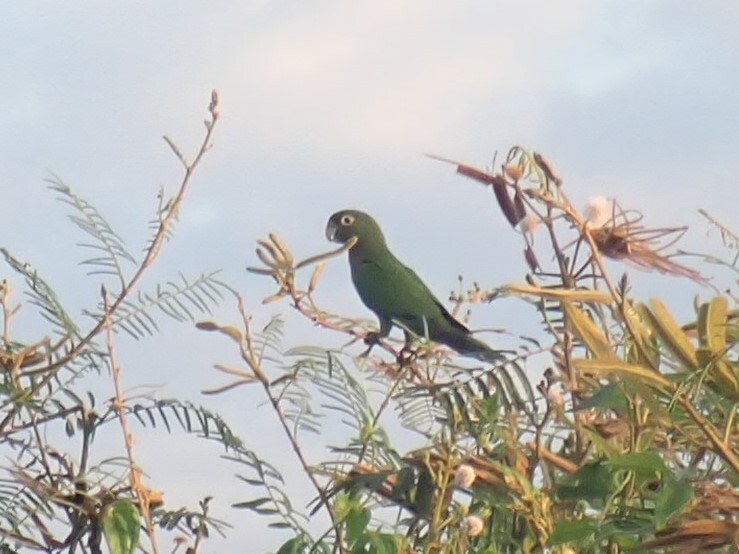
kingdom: Animalia
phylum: Chordata
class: Aves
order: Psittaciformes
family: Psittacidae
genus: Aratinga
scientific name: Aratinga nana
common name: Olive-throated parakeet
